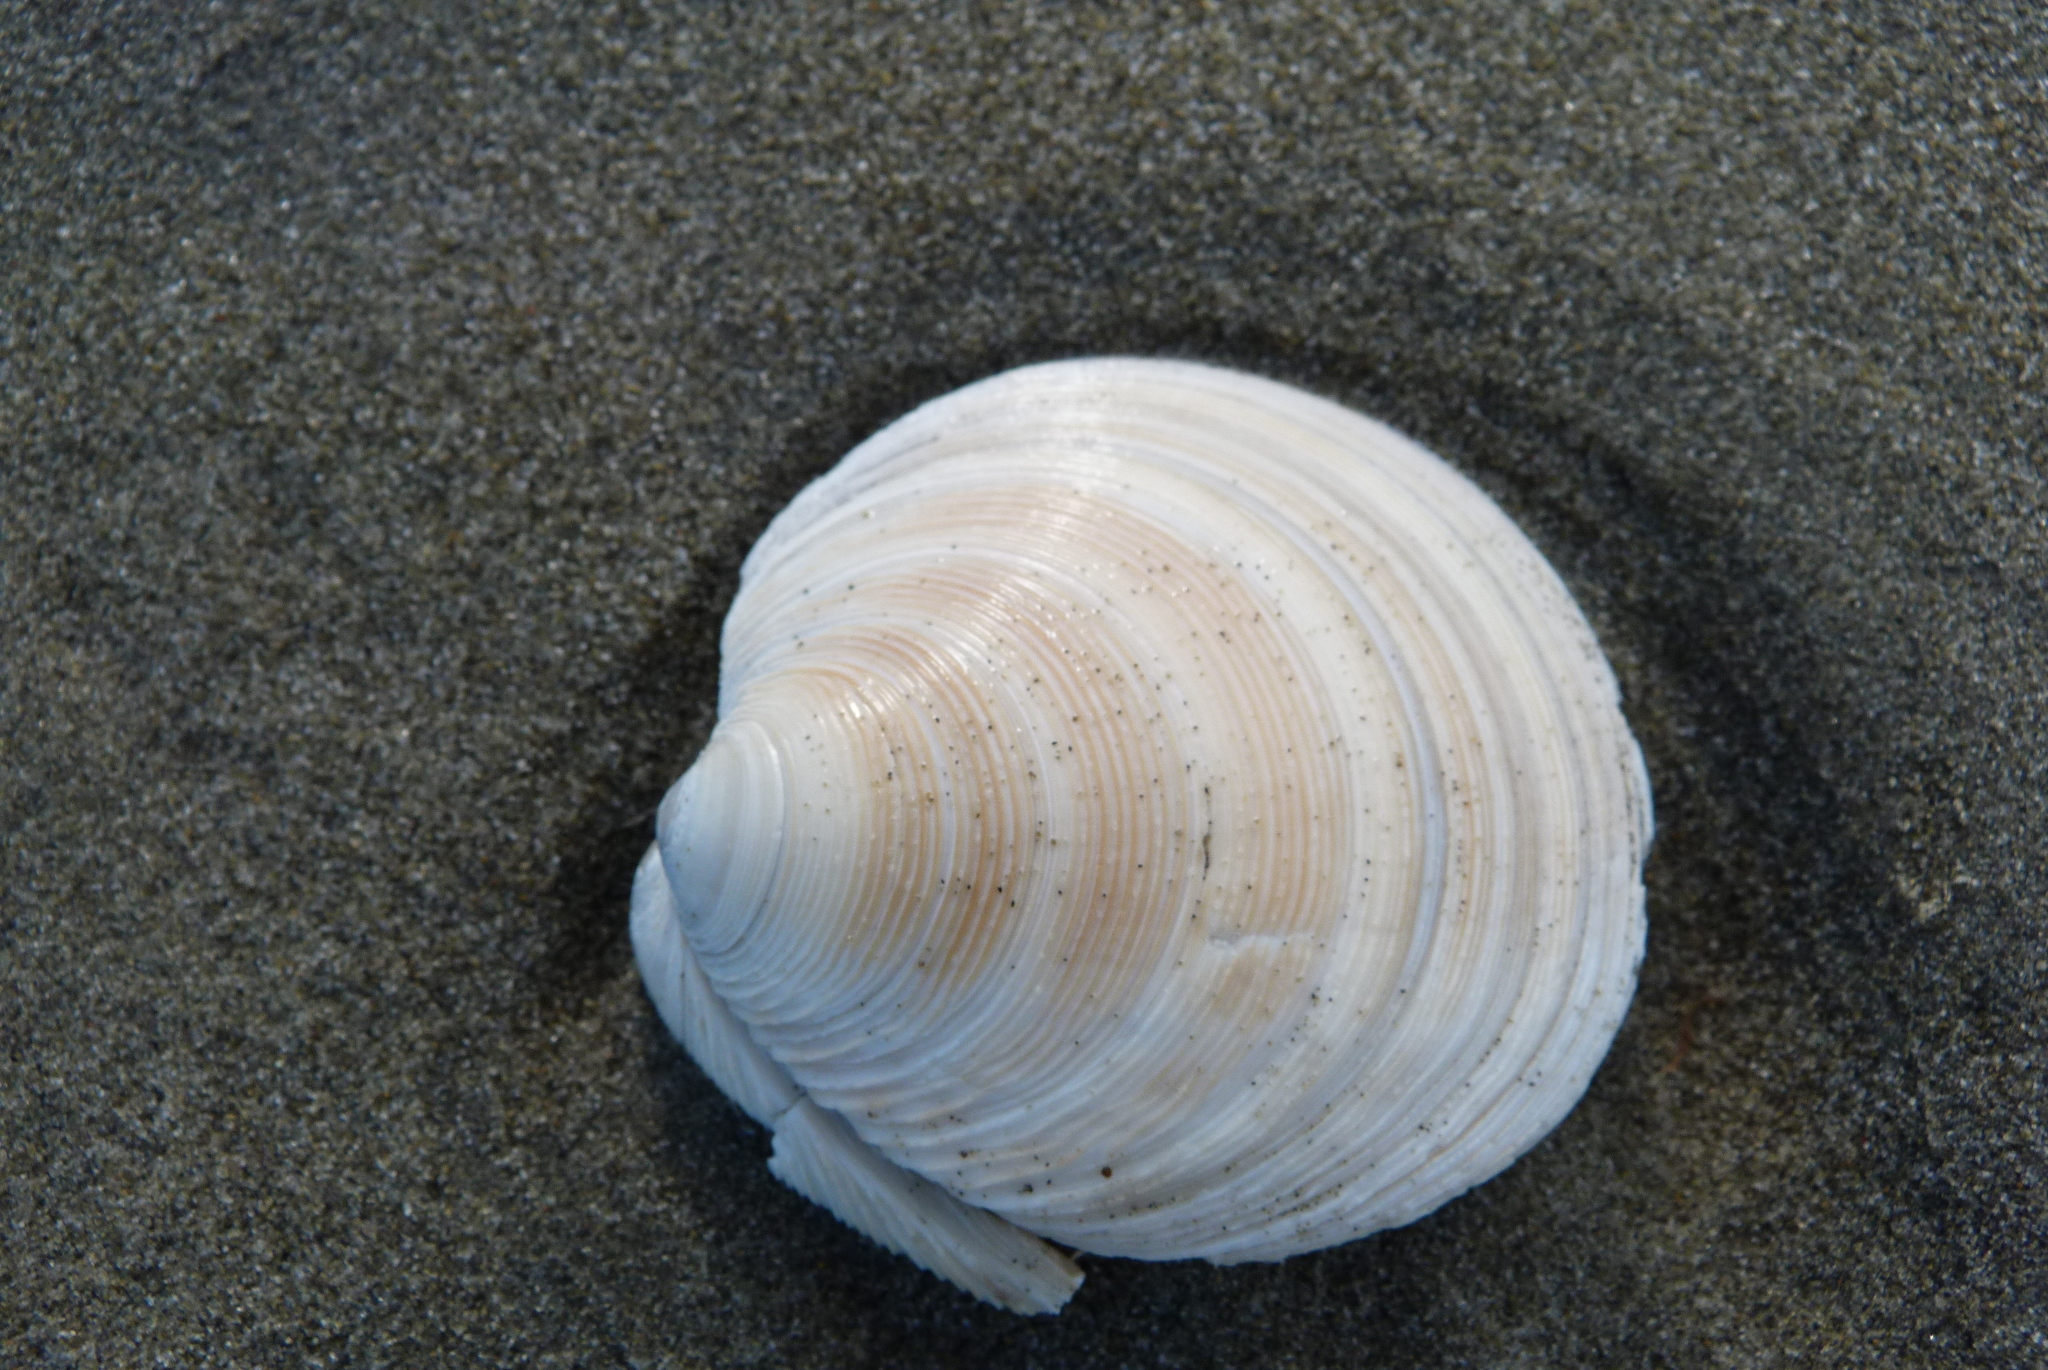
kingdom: Animalia
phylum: Mollusca
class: Bivalvia
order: Venerida
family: Veneridae
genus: Dosinia
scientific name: Dosinia anus
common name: Old-woman dosinia
